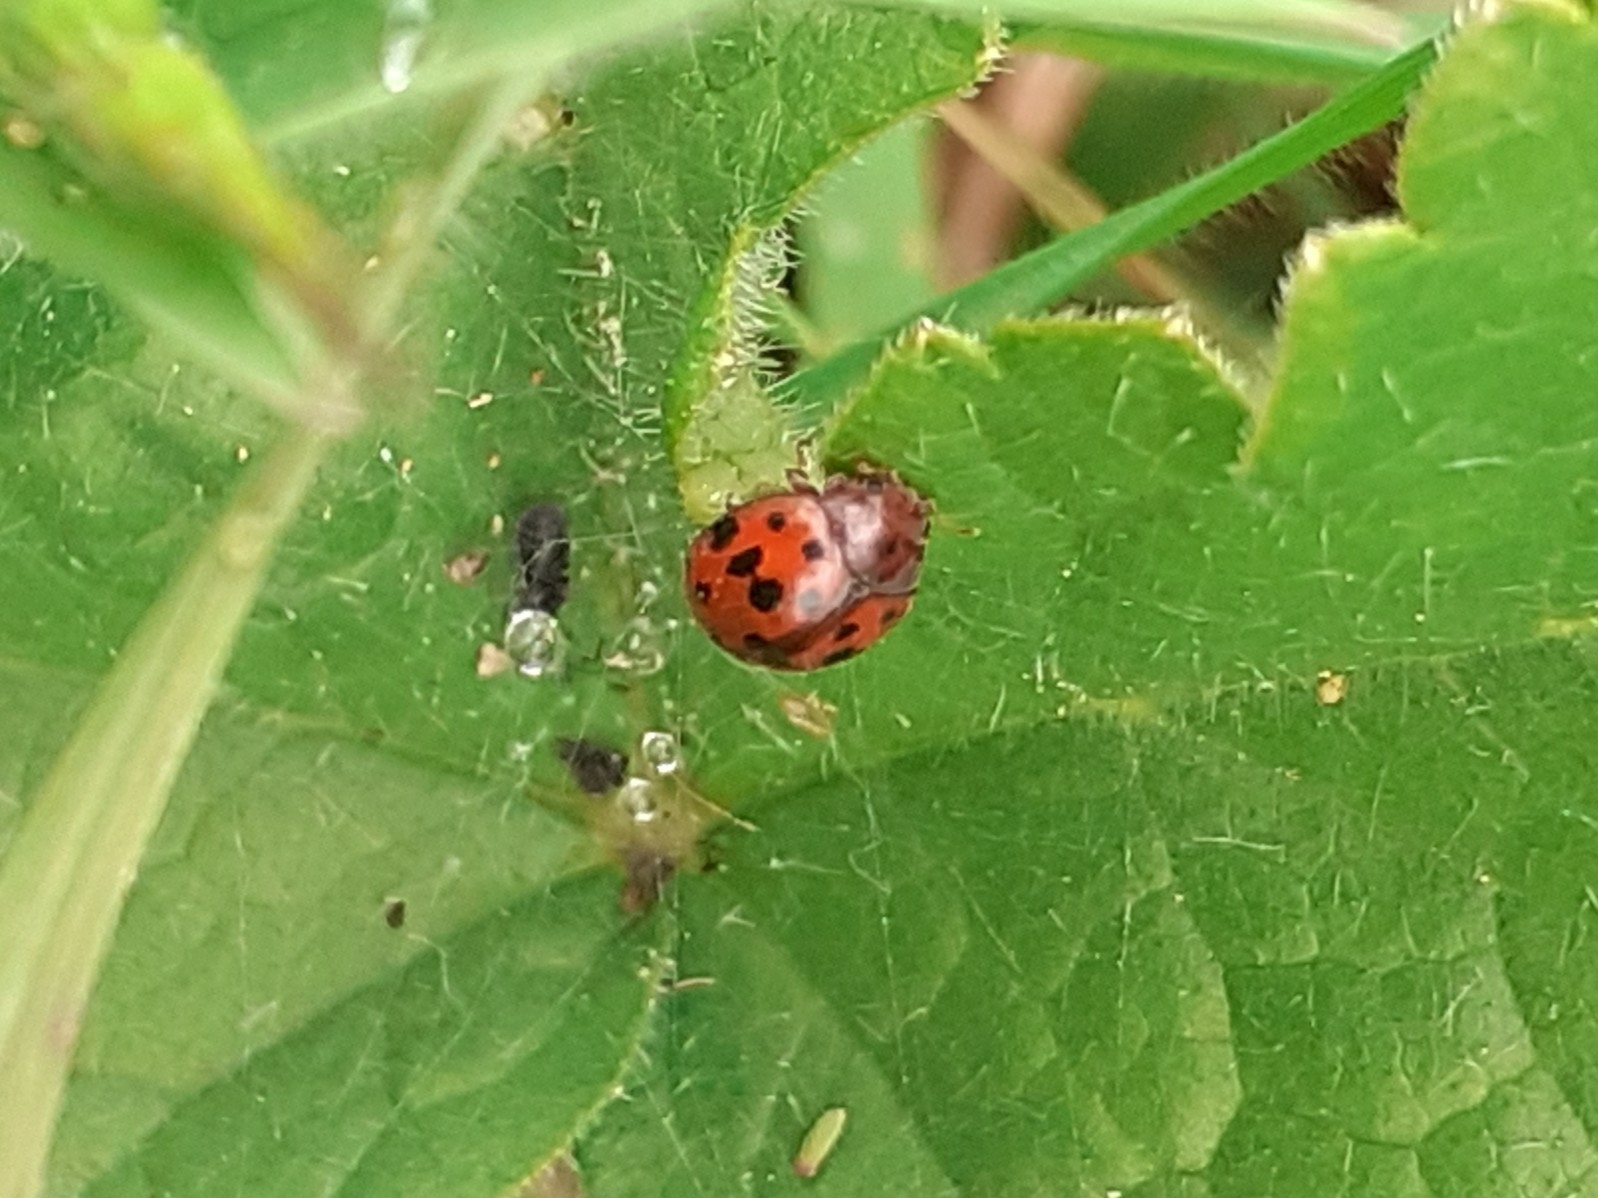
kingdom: Animalia
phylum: Arthropoda
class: Insecta
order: Coleoptera
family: Coccinellidae
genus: Subcoccinella
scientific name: Subcoccinella vigintiquatuorpunctata
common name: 24-spot ladybird
